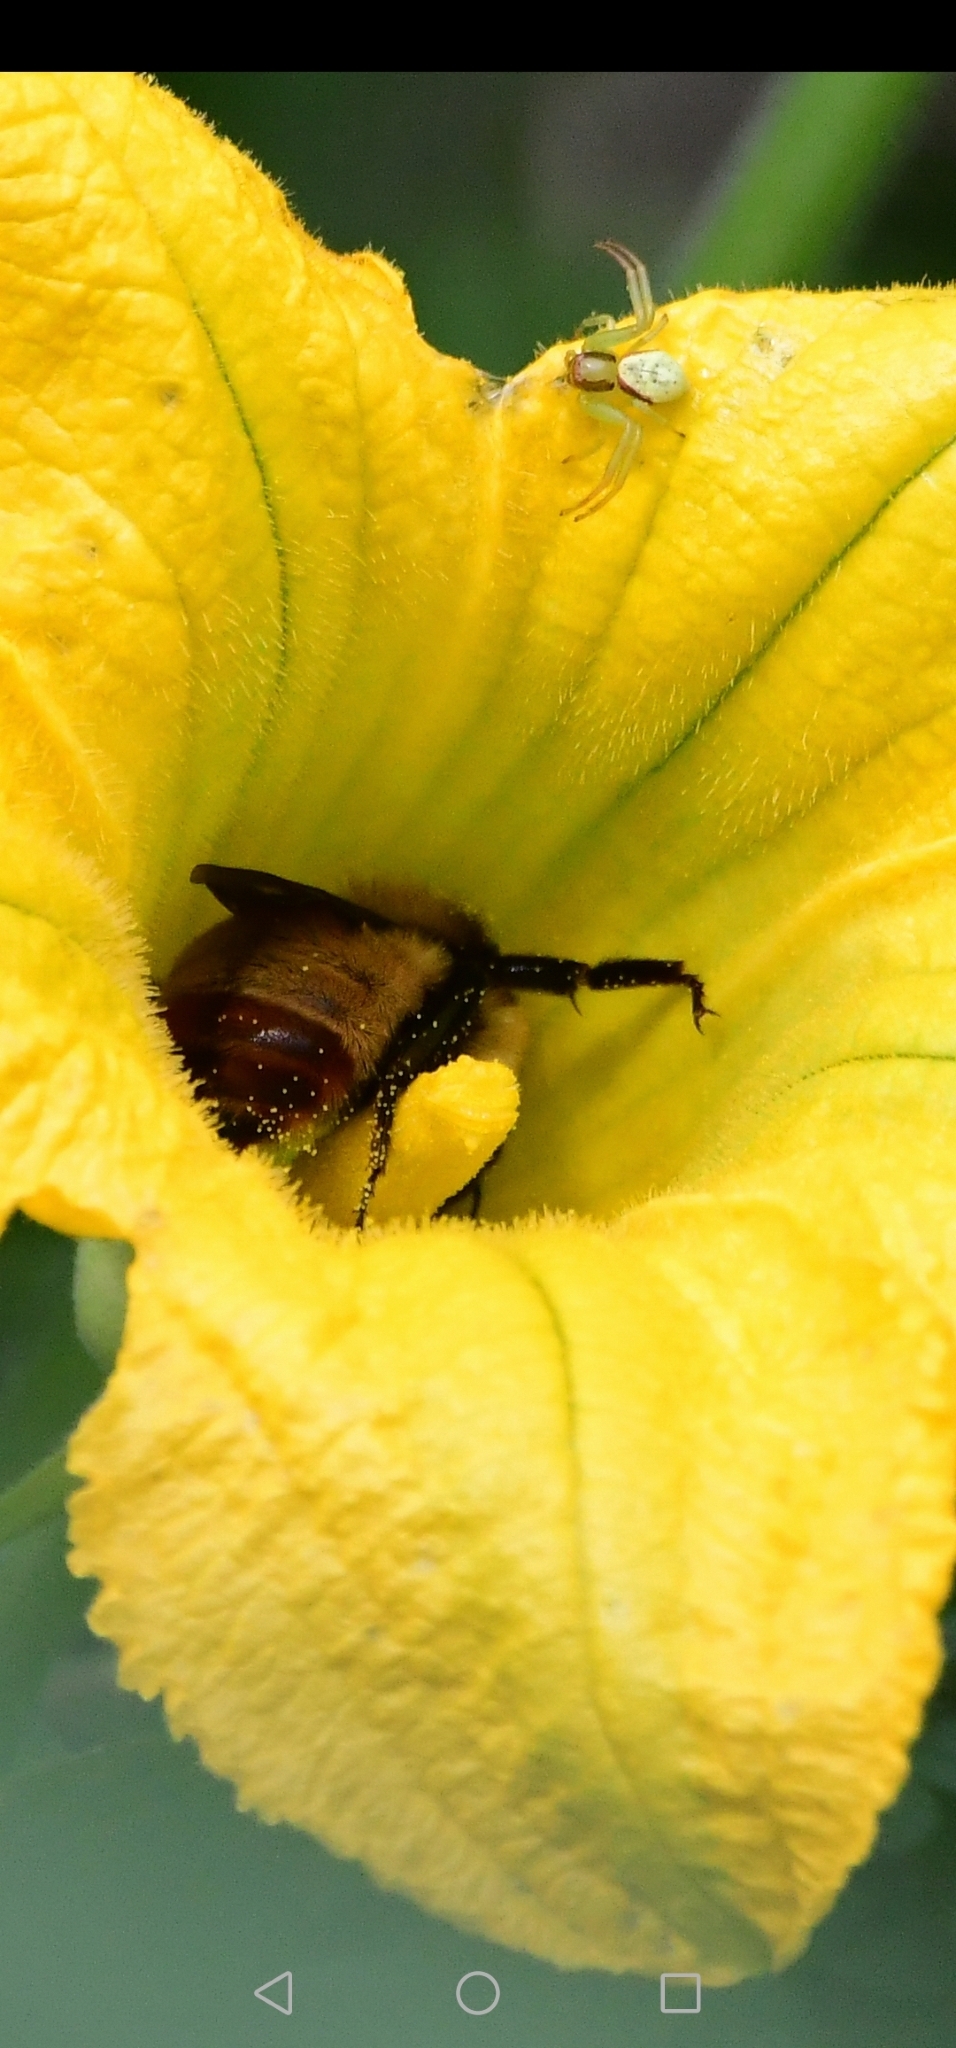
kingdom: Animalia
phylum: Arthropoda
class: Insecta
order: Hymenoptera
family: Apidae
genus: Bombus
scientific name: Bombus opifex
